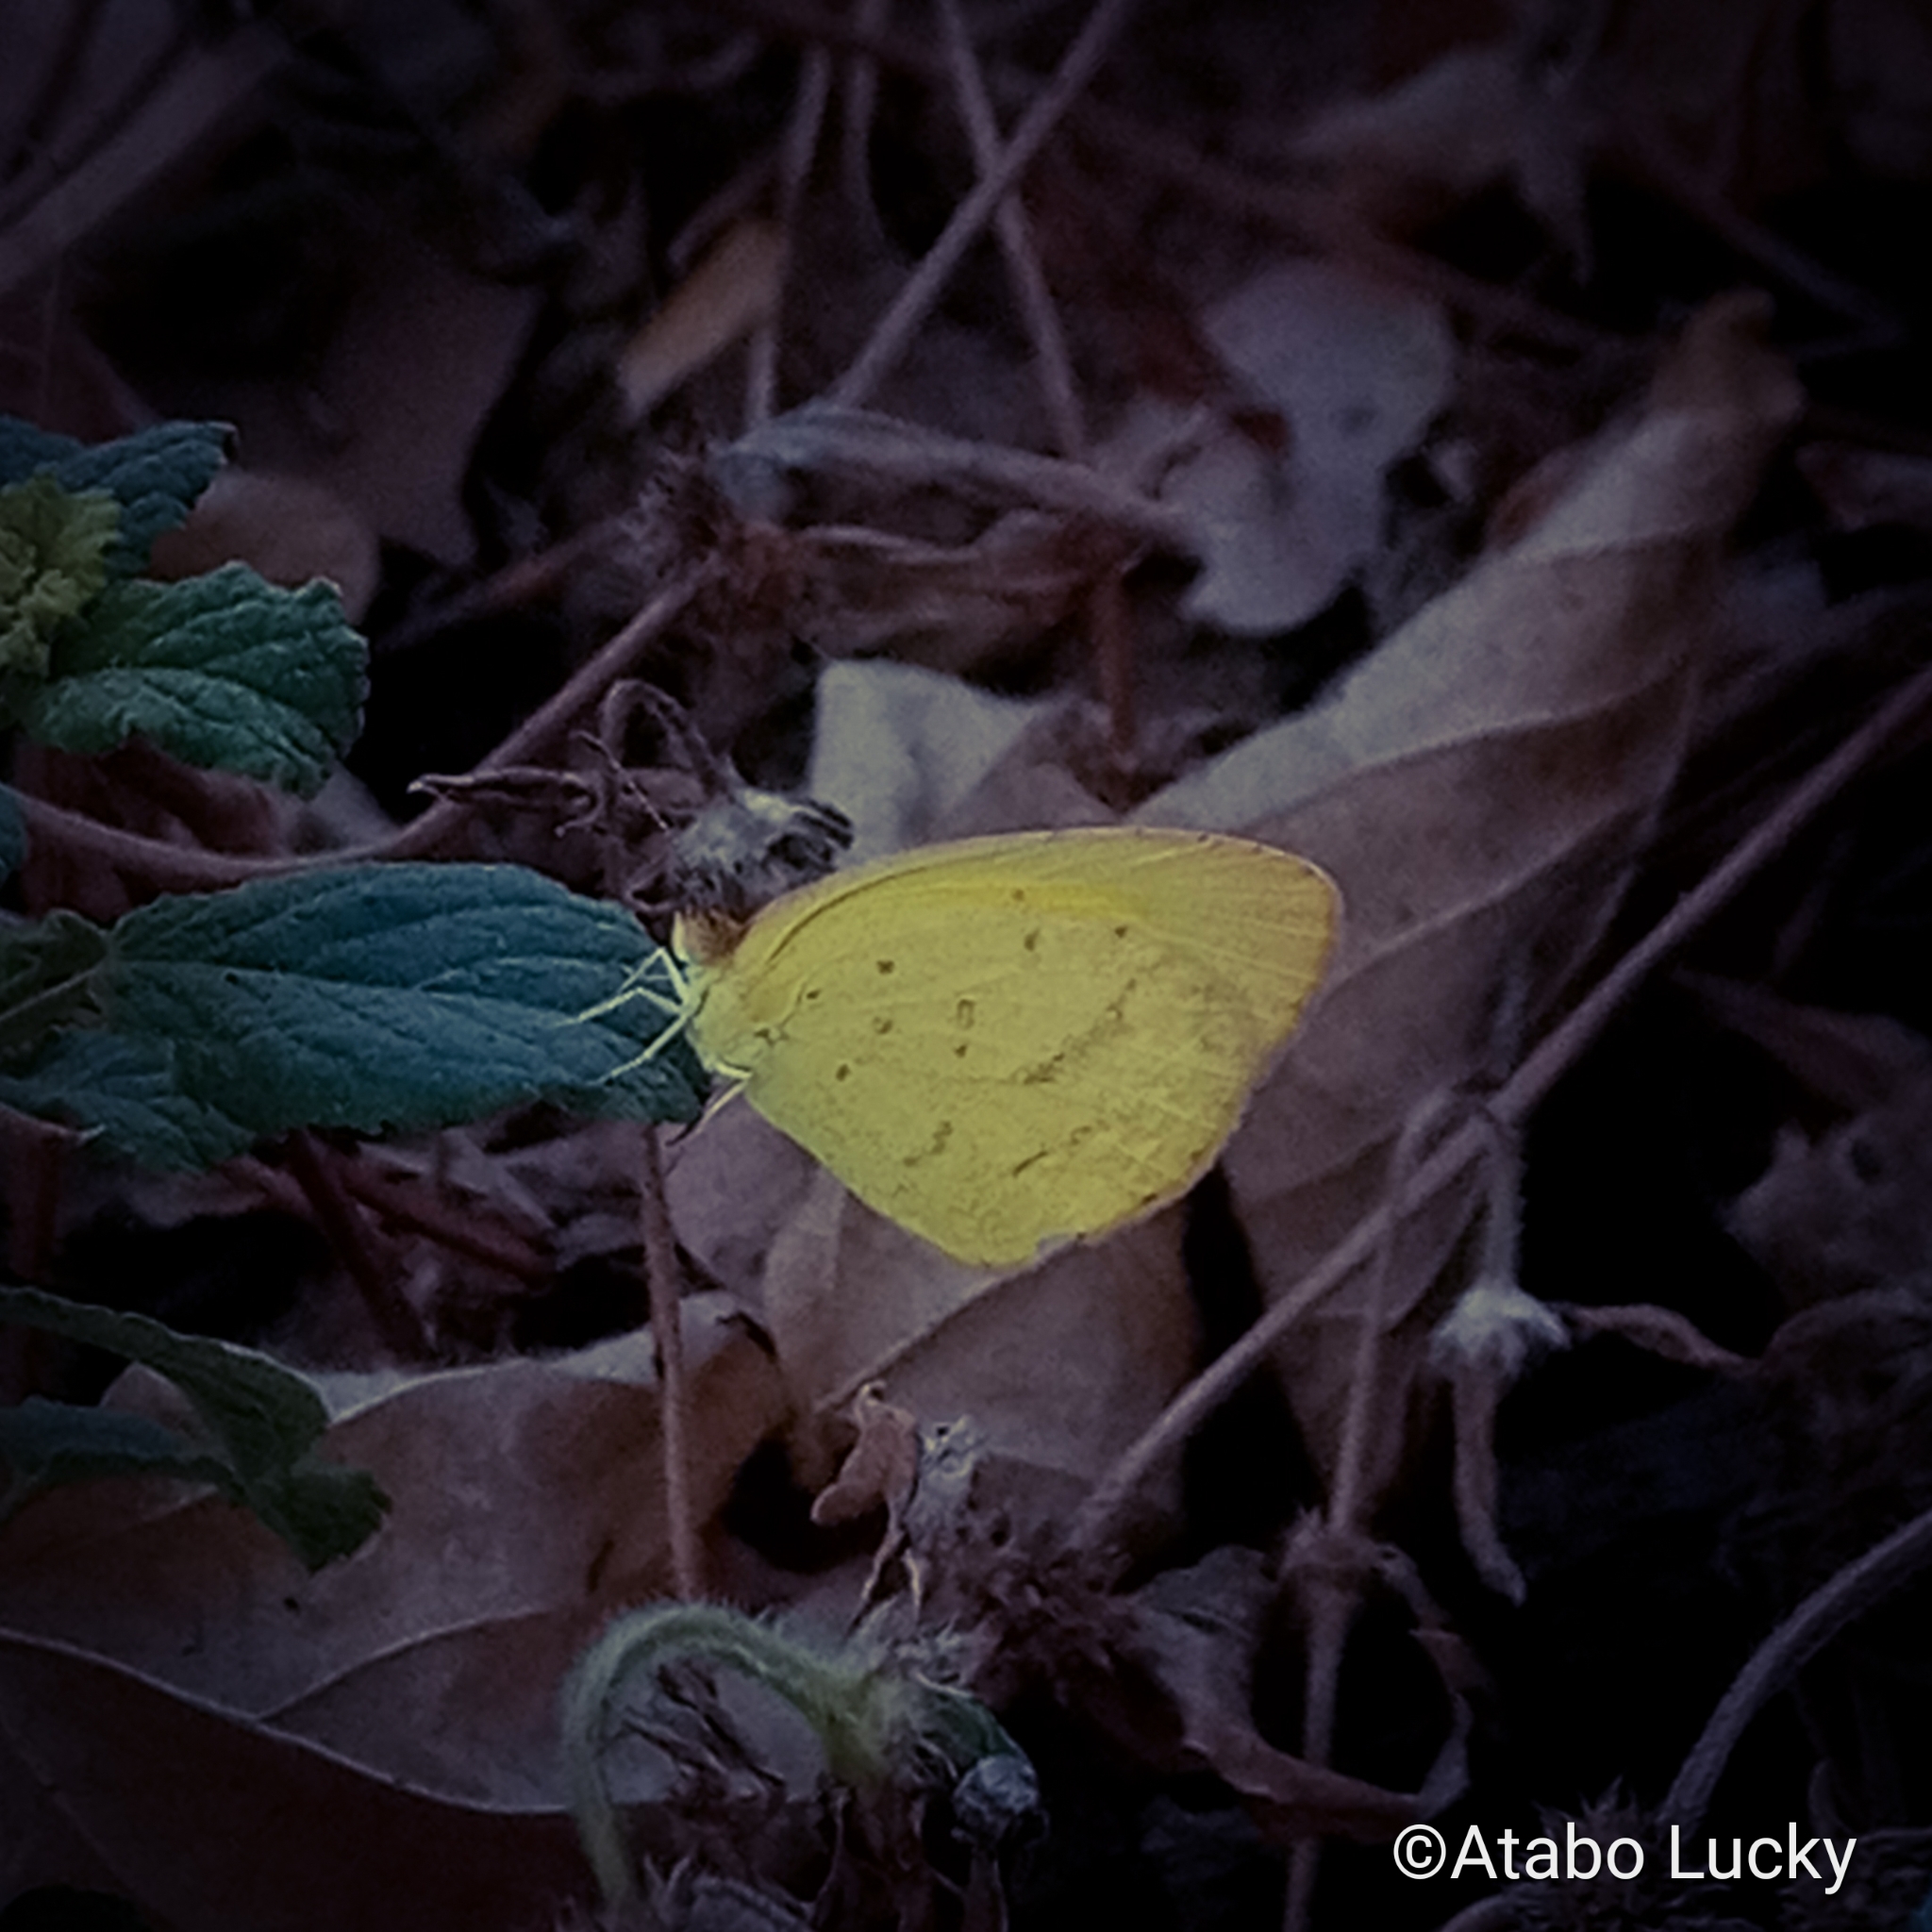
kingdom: Animalia
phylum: Arthropoda
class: Insecta
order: Lepidoptera
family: Pieridae
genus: Eurema
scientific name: Eurema brigitta
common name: Small grass yellow
